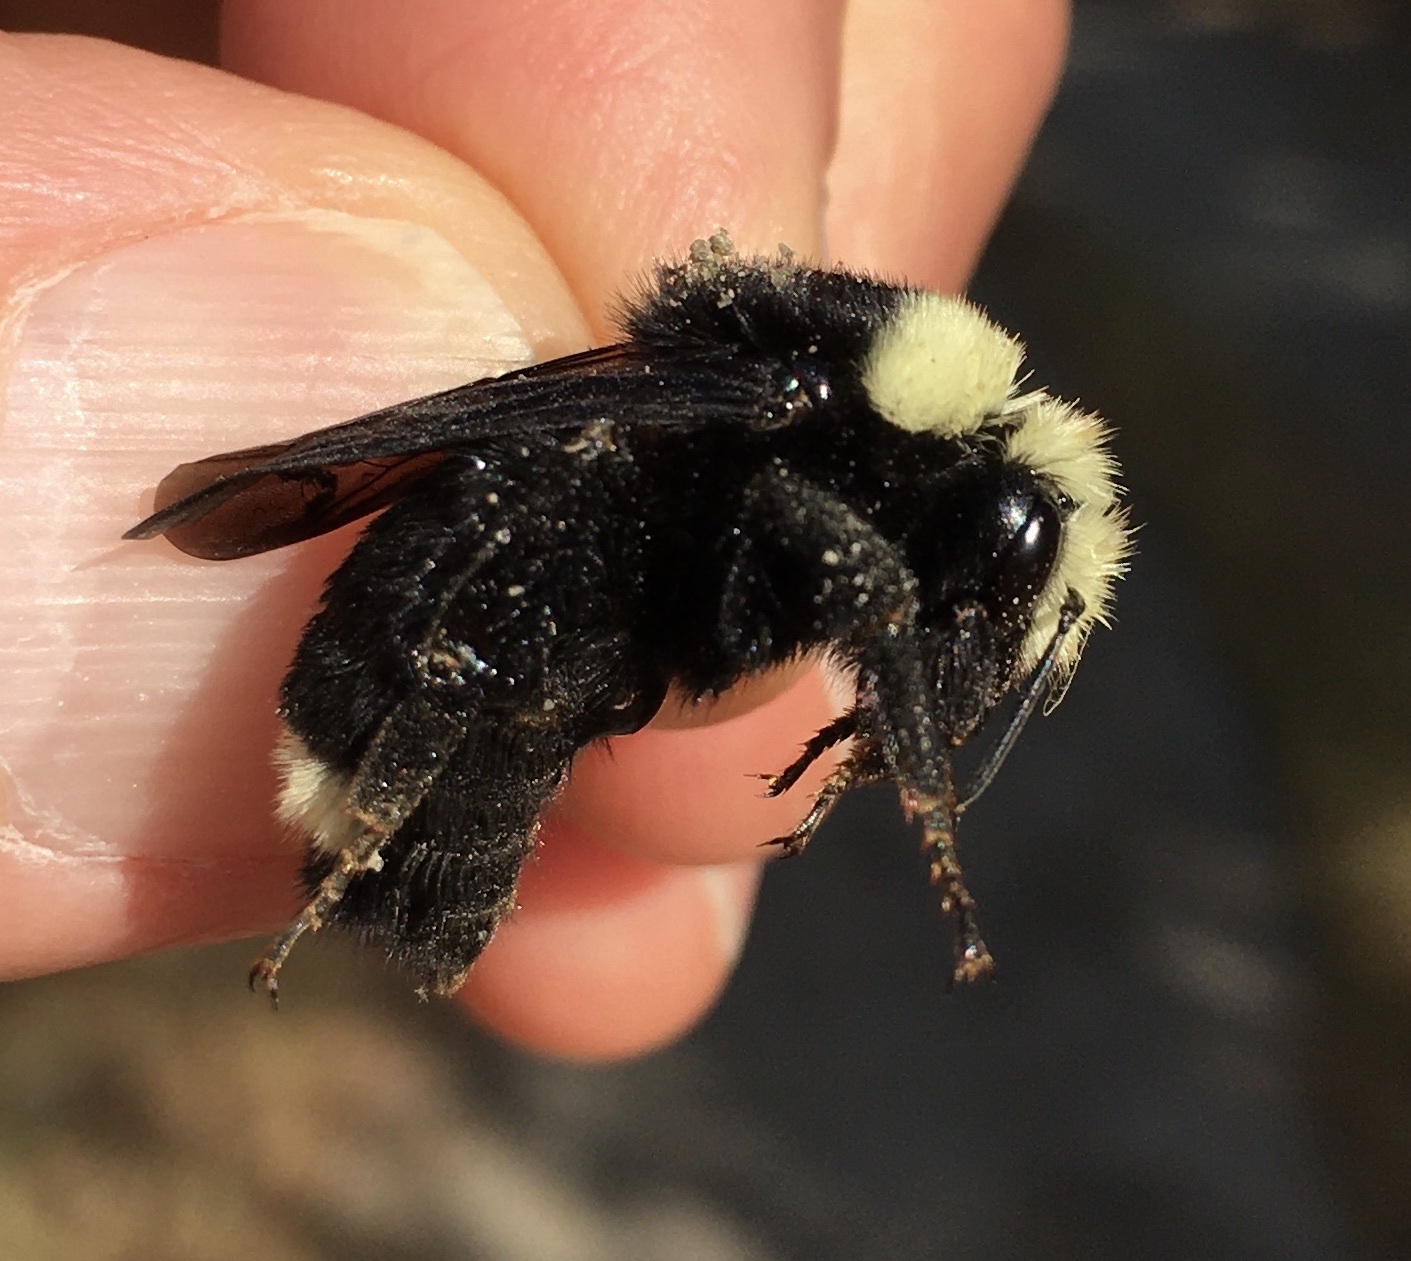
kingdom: Animalia
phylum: Arthropoda
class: Insecta
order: Hymenoptera
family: Apidae
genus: Bombus
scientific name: Bombus vosnesenskii
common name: Vosnesensky bumble bee
